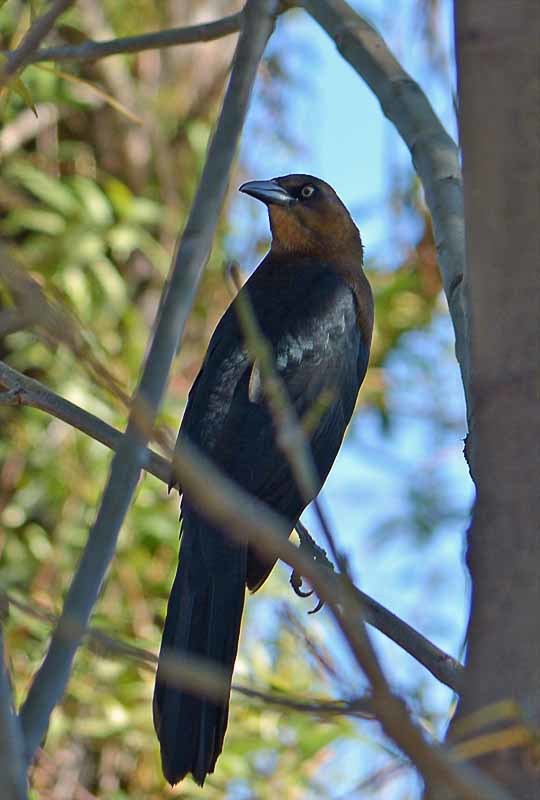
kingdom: Animalia
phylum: Chordata
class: Aves
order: Passeriformes
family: Icteridae
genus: Quiscalus
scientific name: Quiscalus mexicanus
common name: Great-tailed grackle
